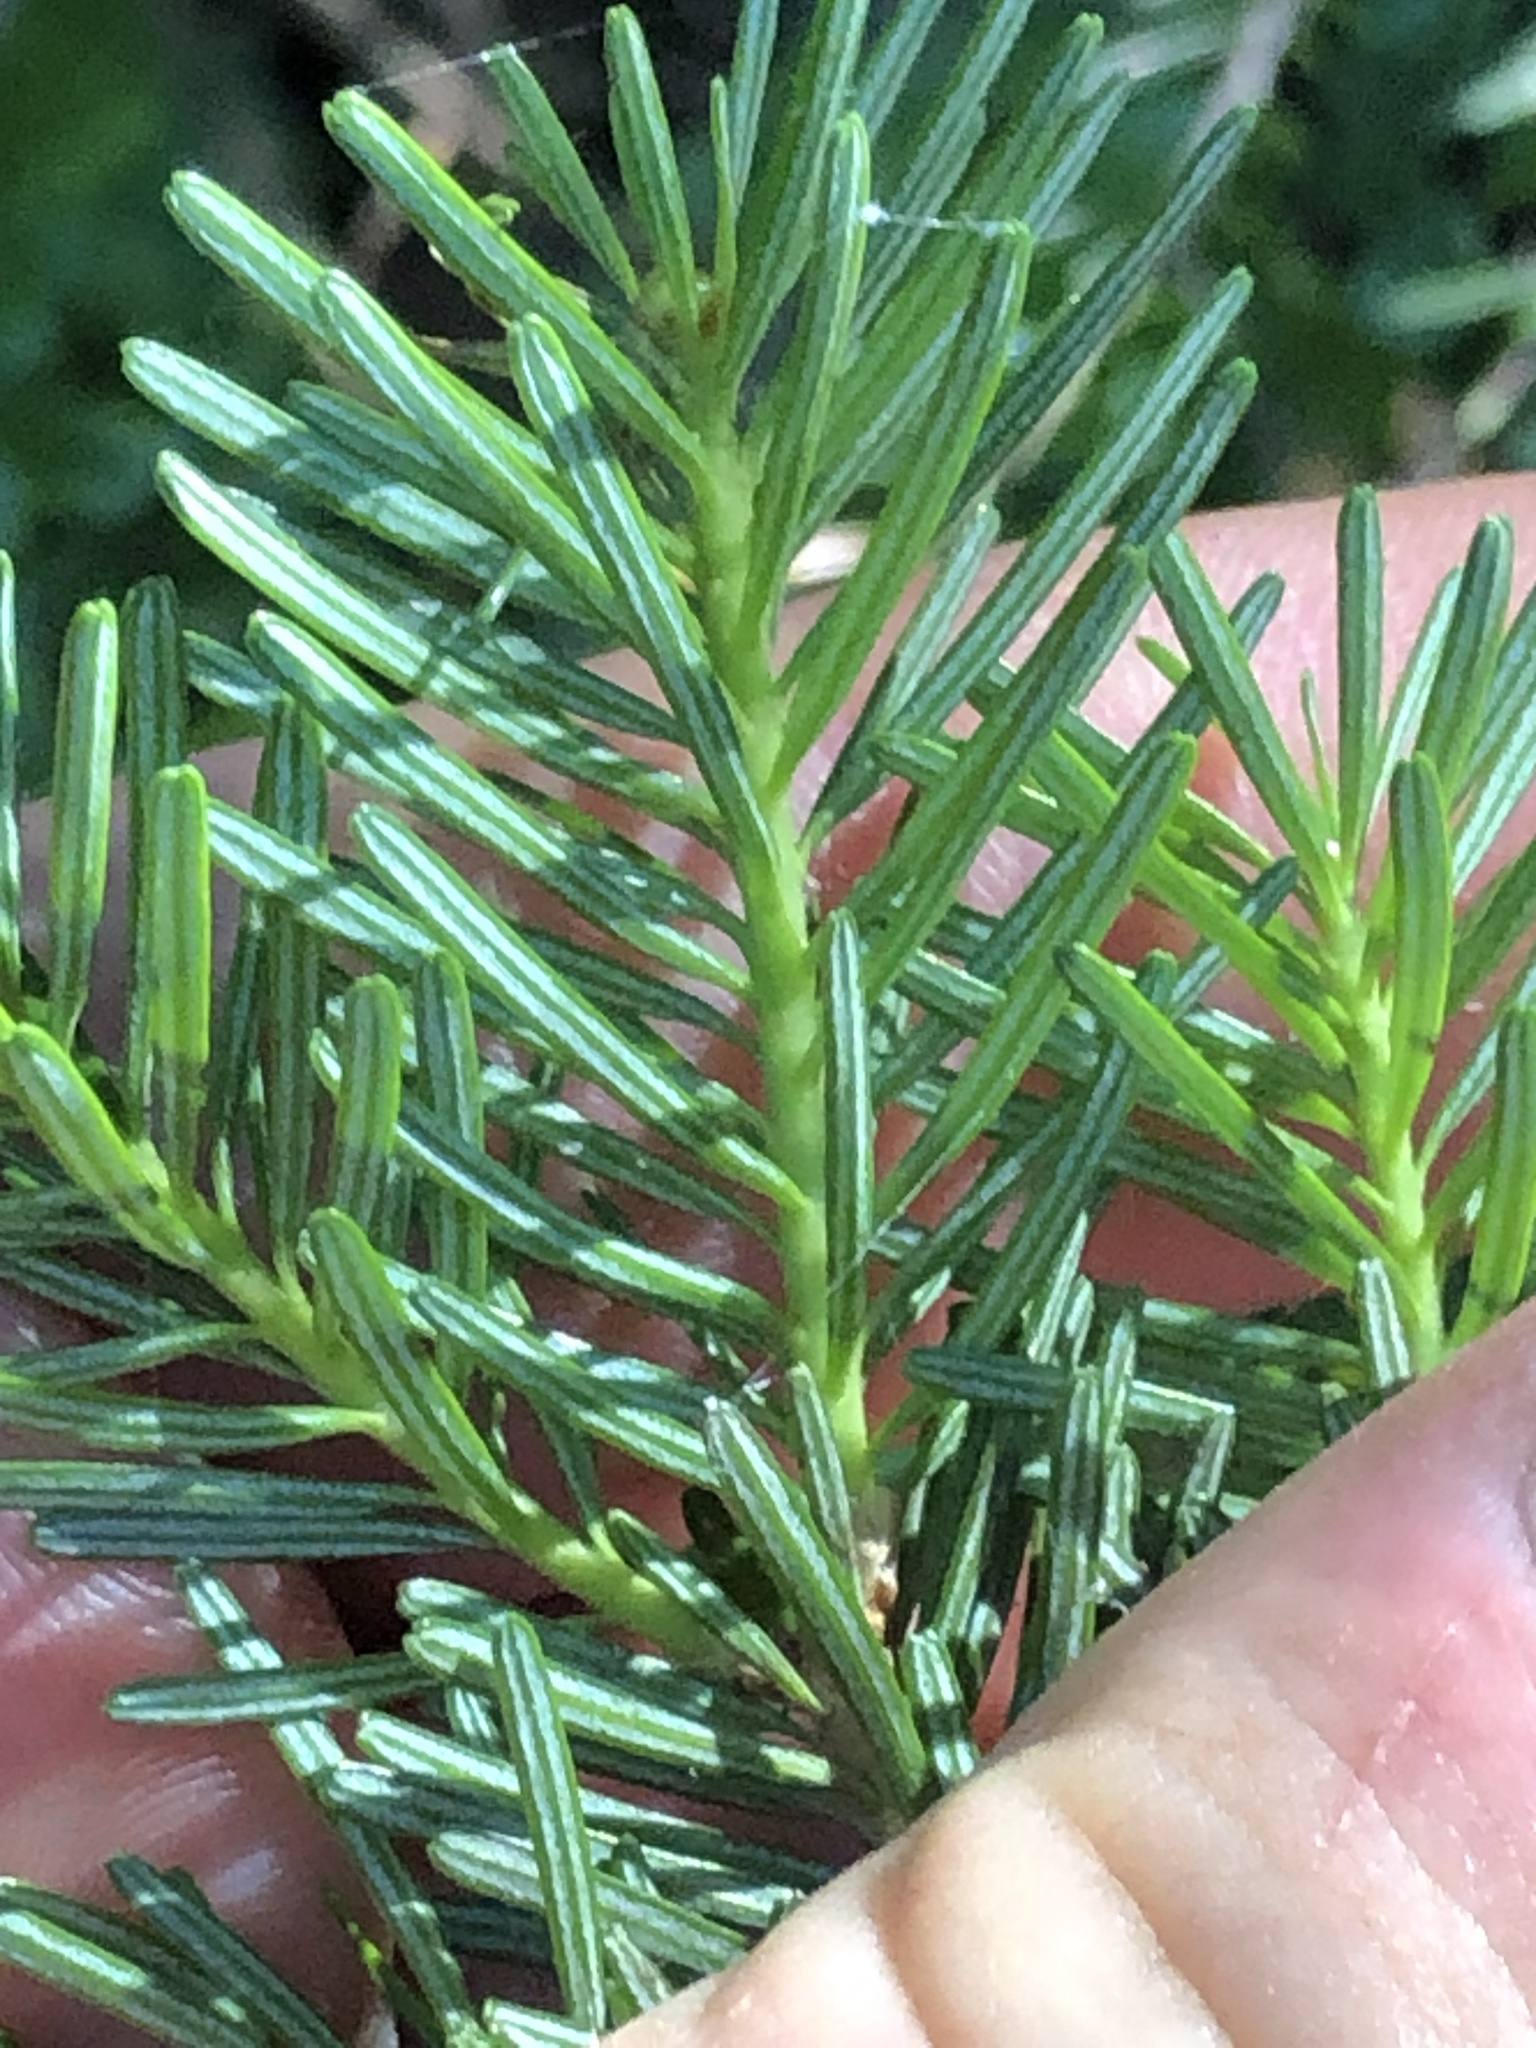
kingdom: Plantae
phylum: Tracheophyta
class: Pinopsida
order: Pinales
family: Pinaceae
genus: Abies
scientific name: Abies lasiocarpa
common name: Subalpine fir
